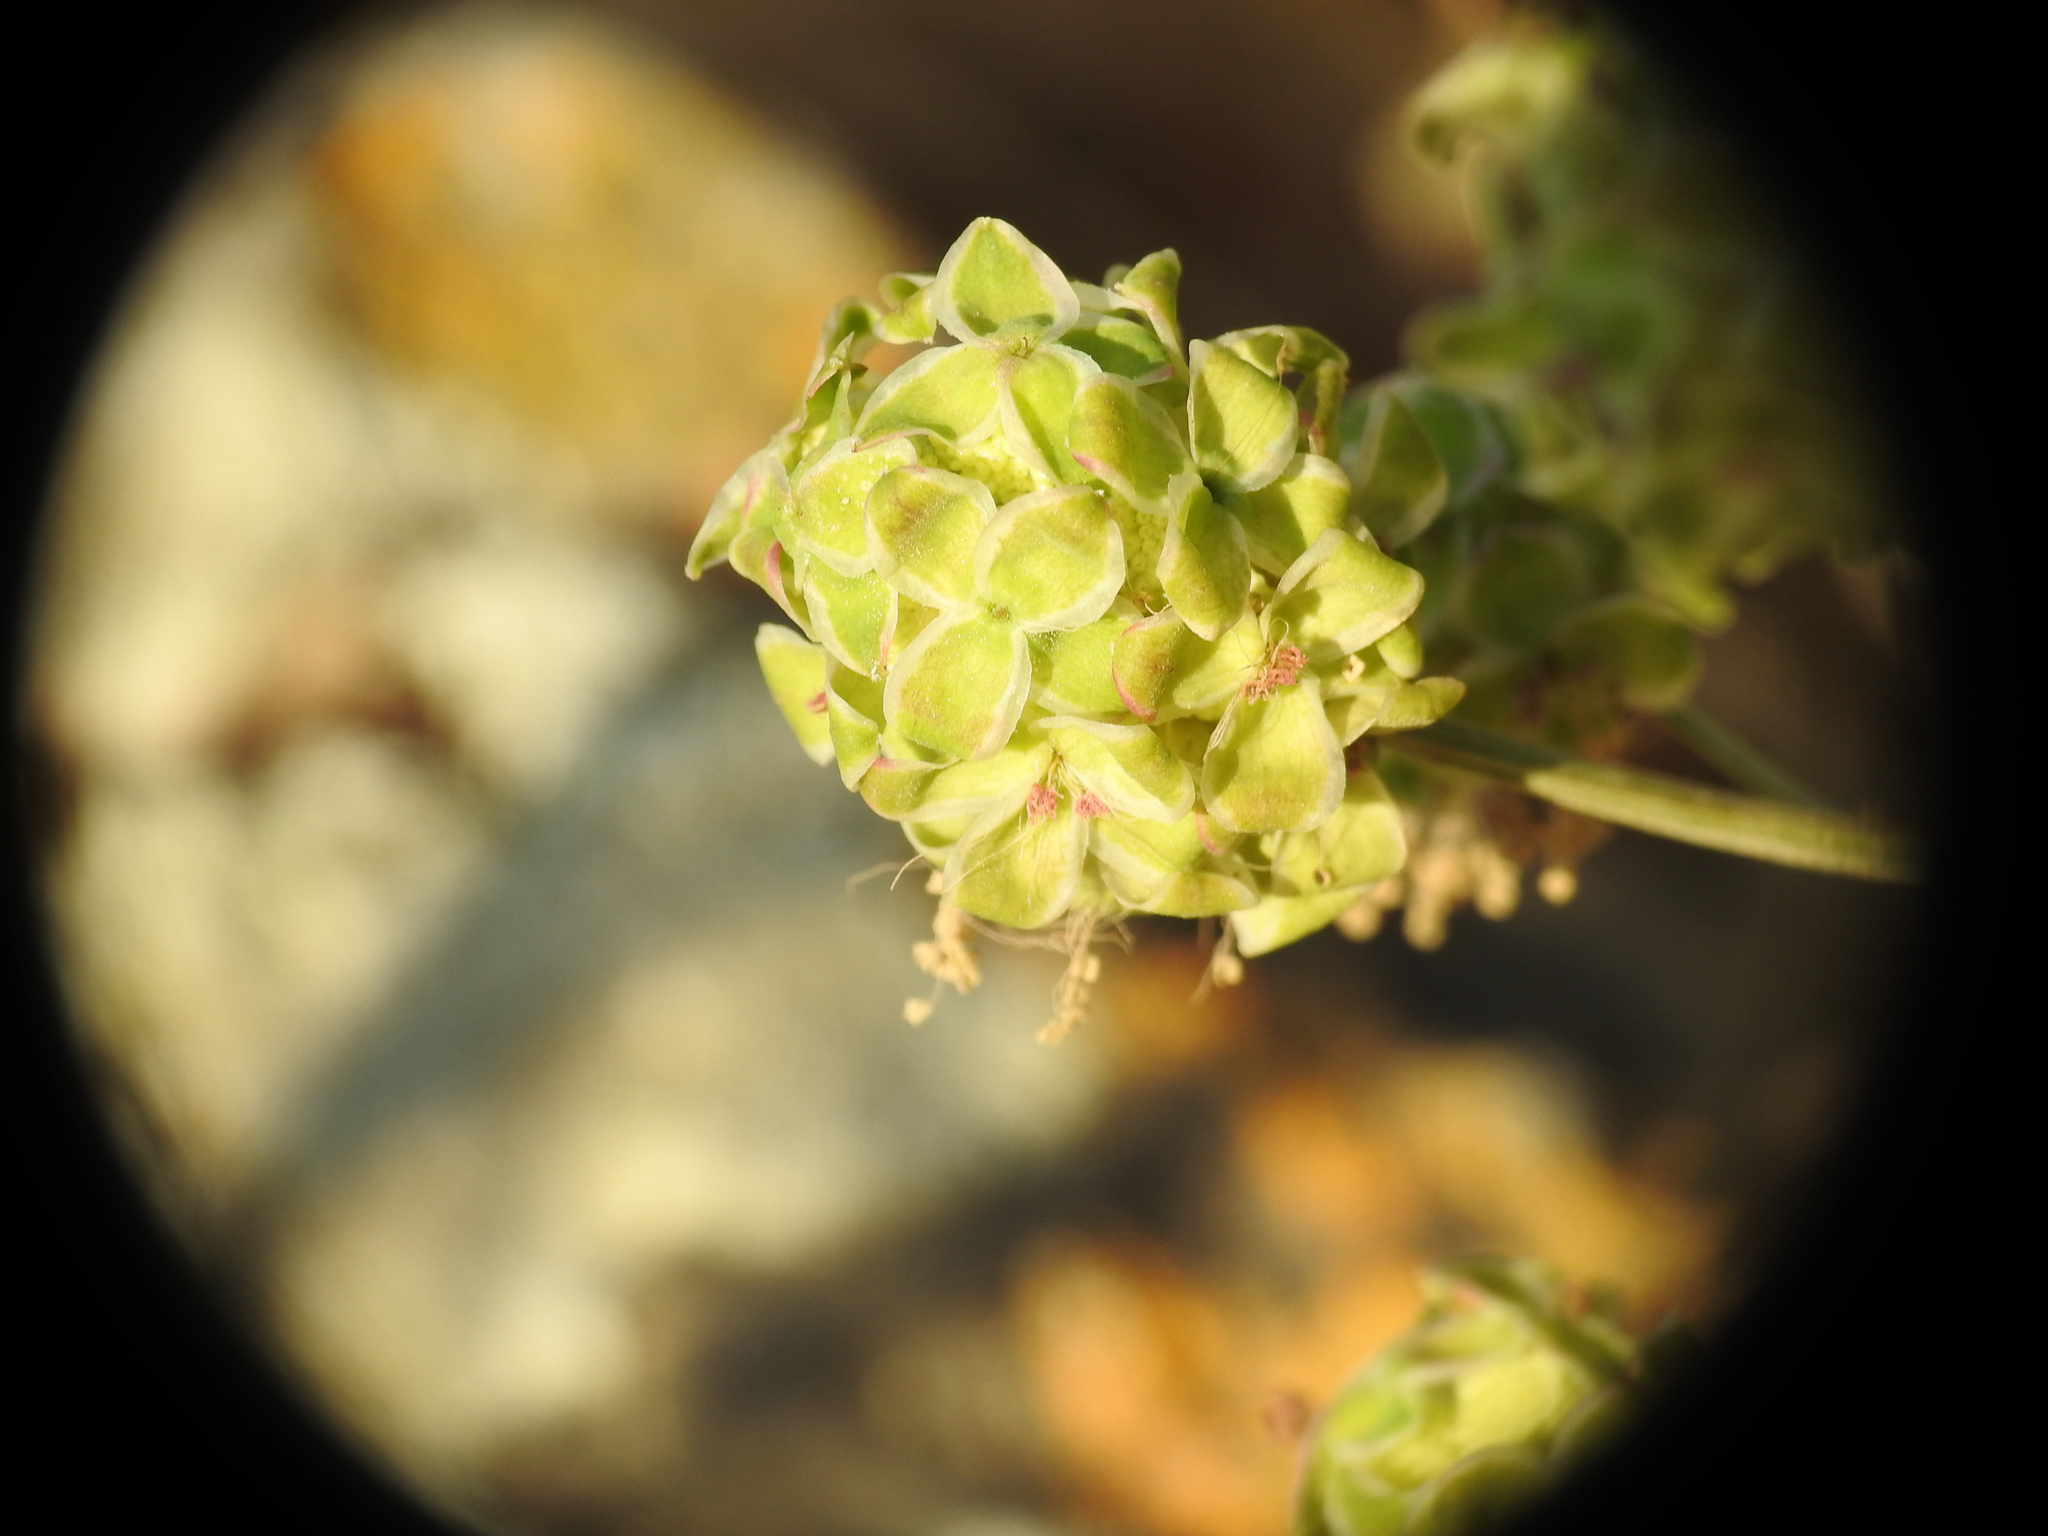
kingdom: Plantae
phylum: Tracheophyta
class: Magnoliopsida
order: Rosales
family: Rosaceae
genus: Poterium
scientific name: Poterium
